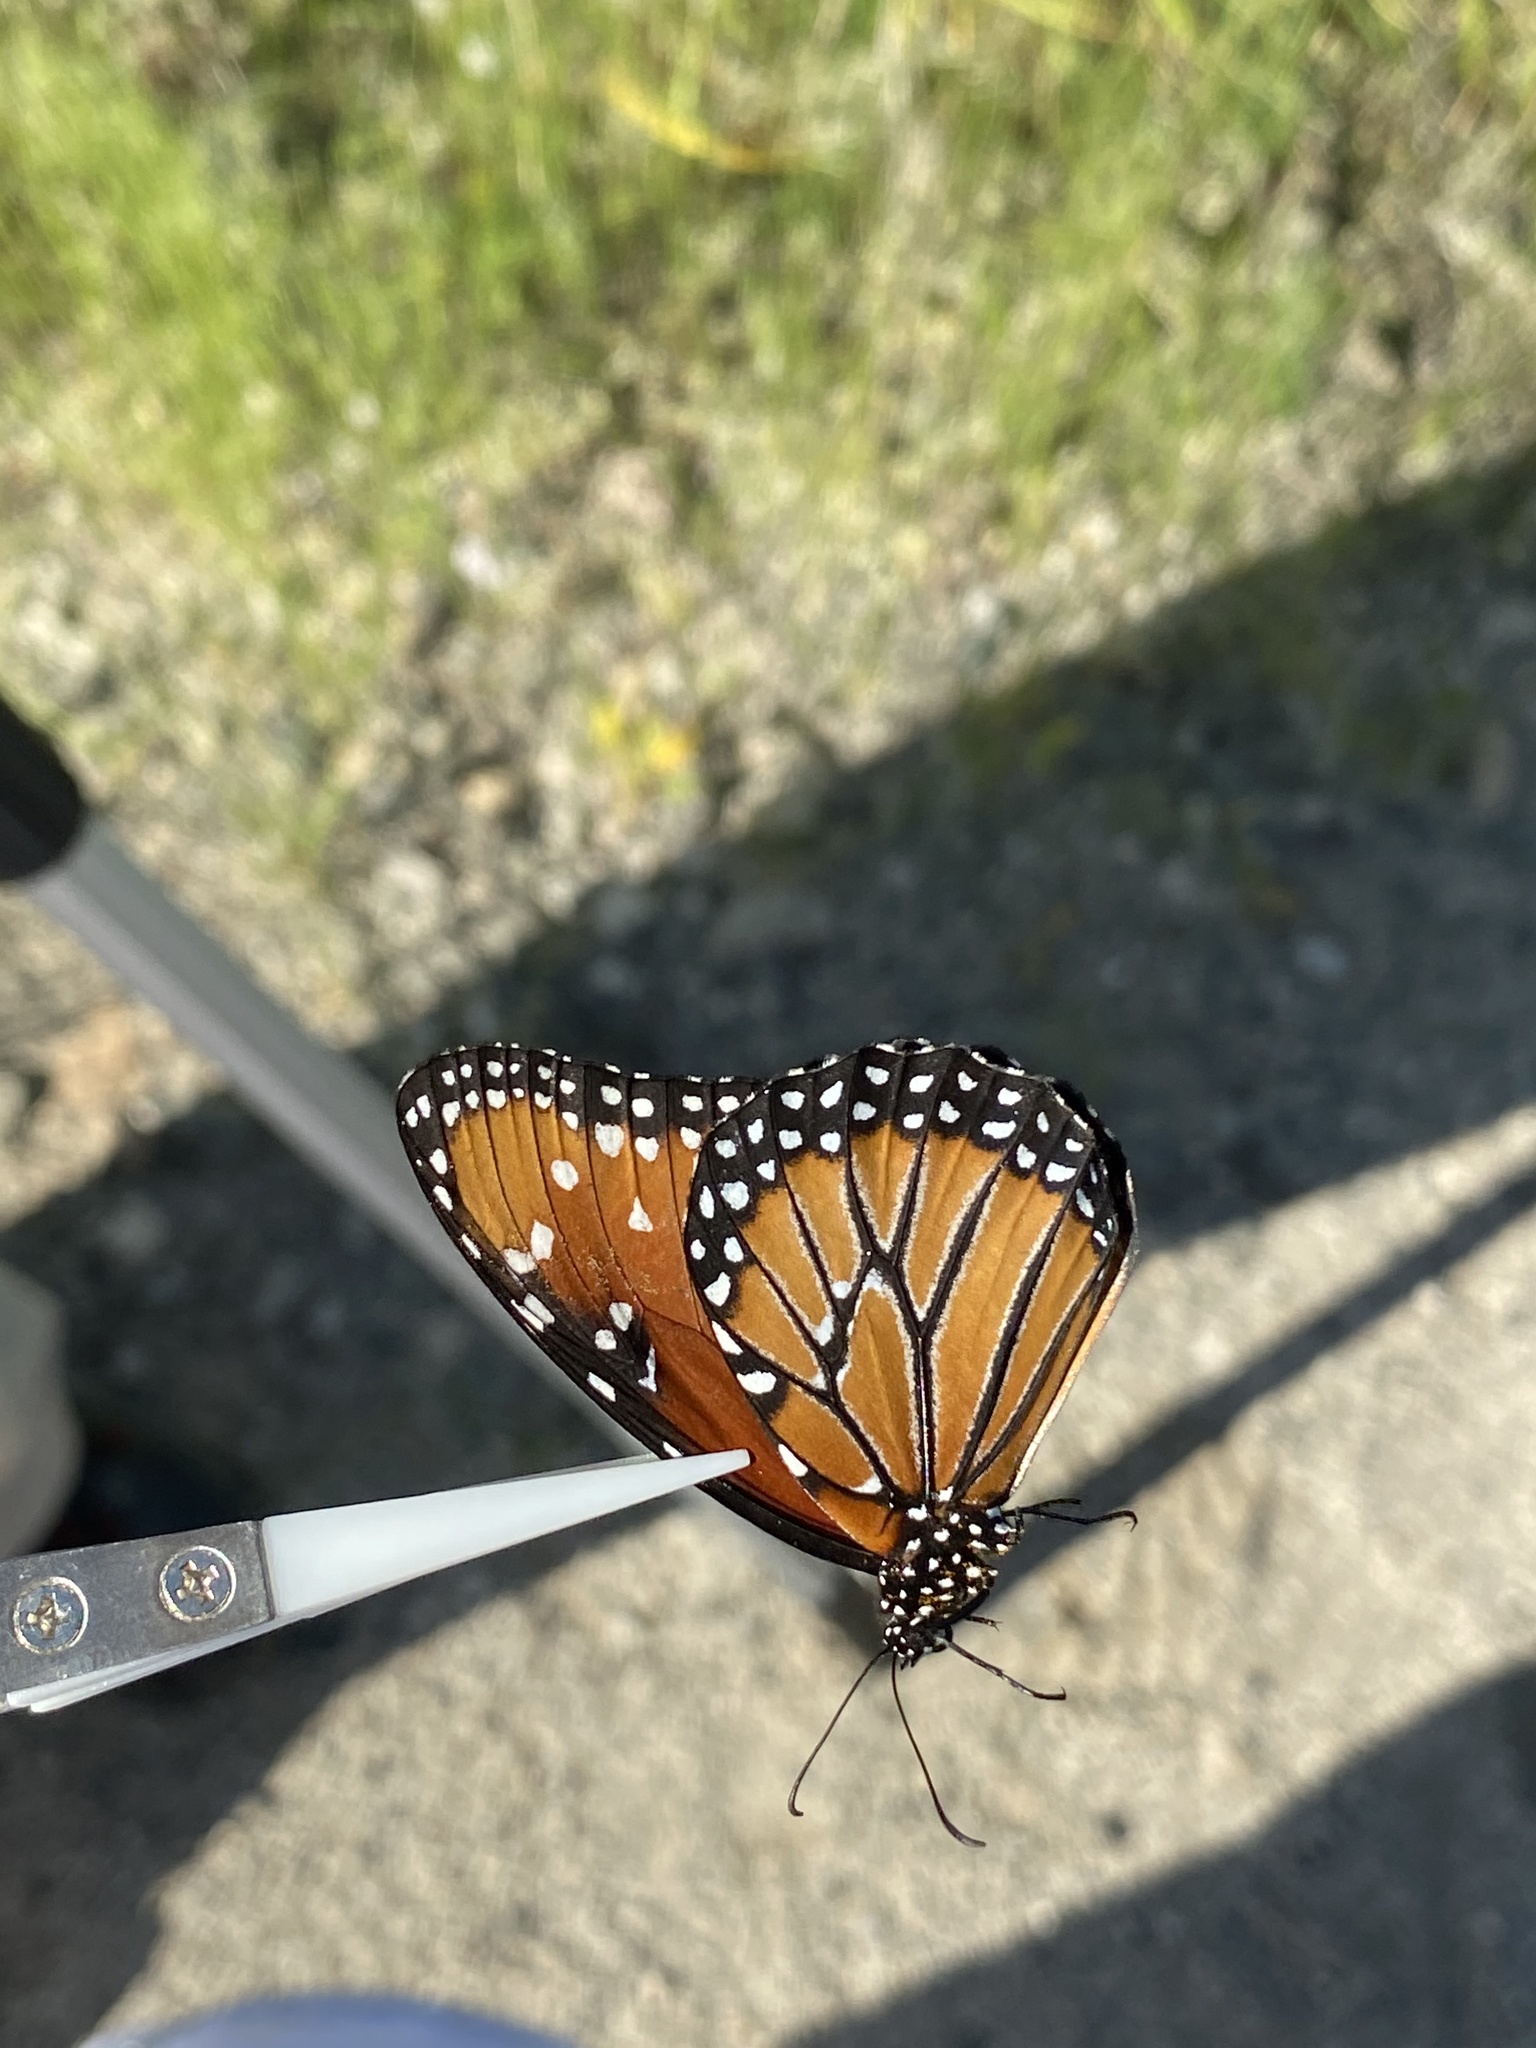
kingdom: Animalia
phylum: Arthropoda
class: Insecta
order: Lepidoptera
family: Nymphalidae
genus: Danaus
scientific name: Danaus gilippus
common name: Queen
